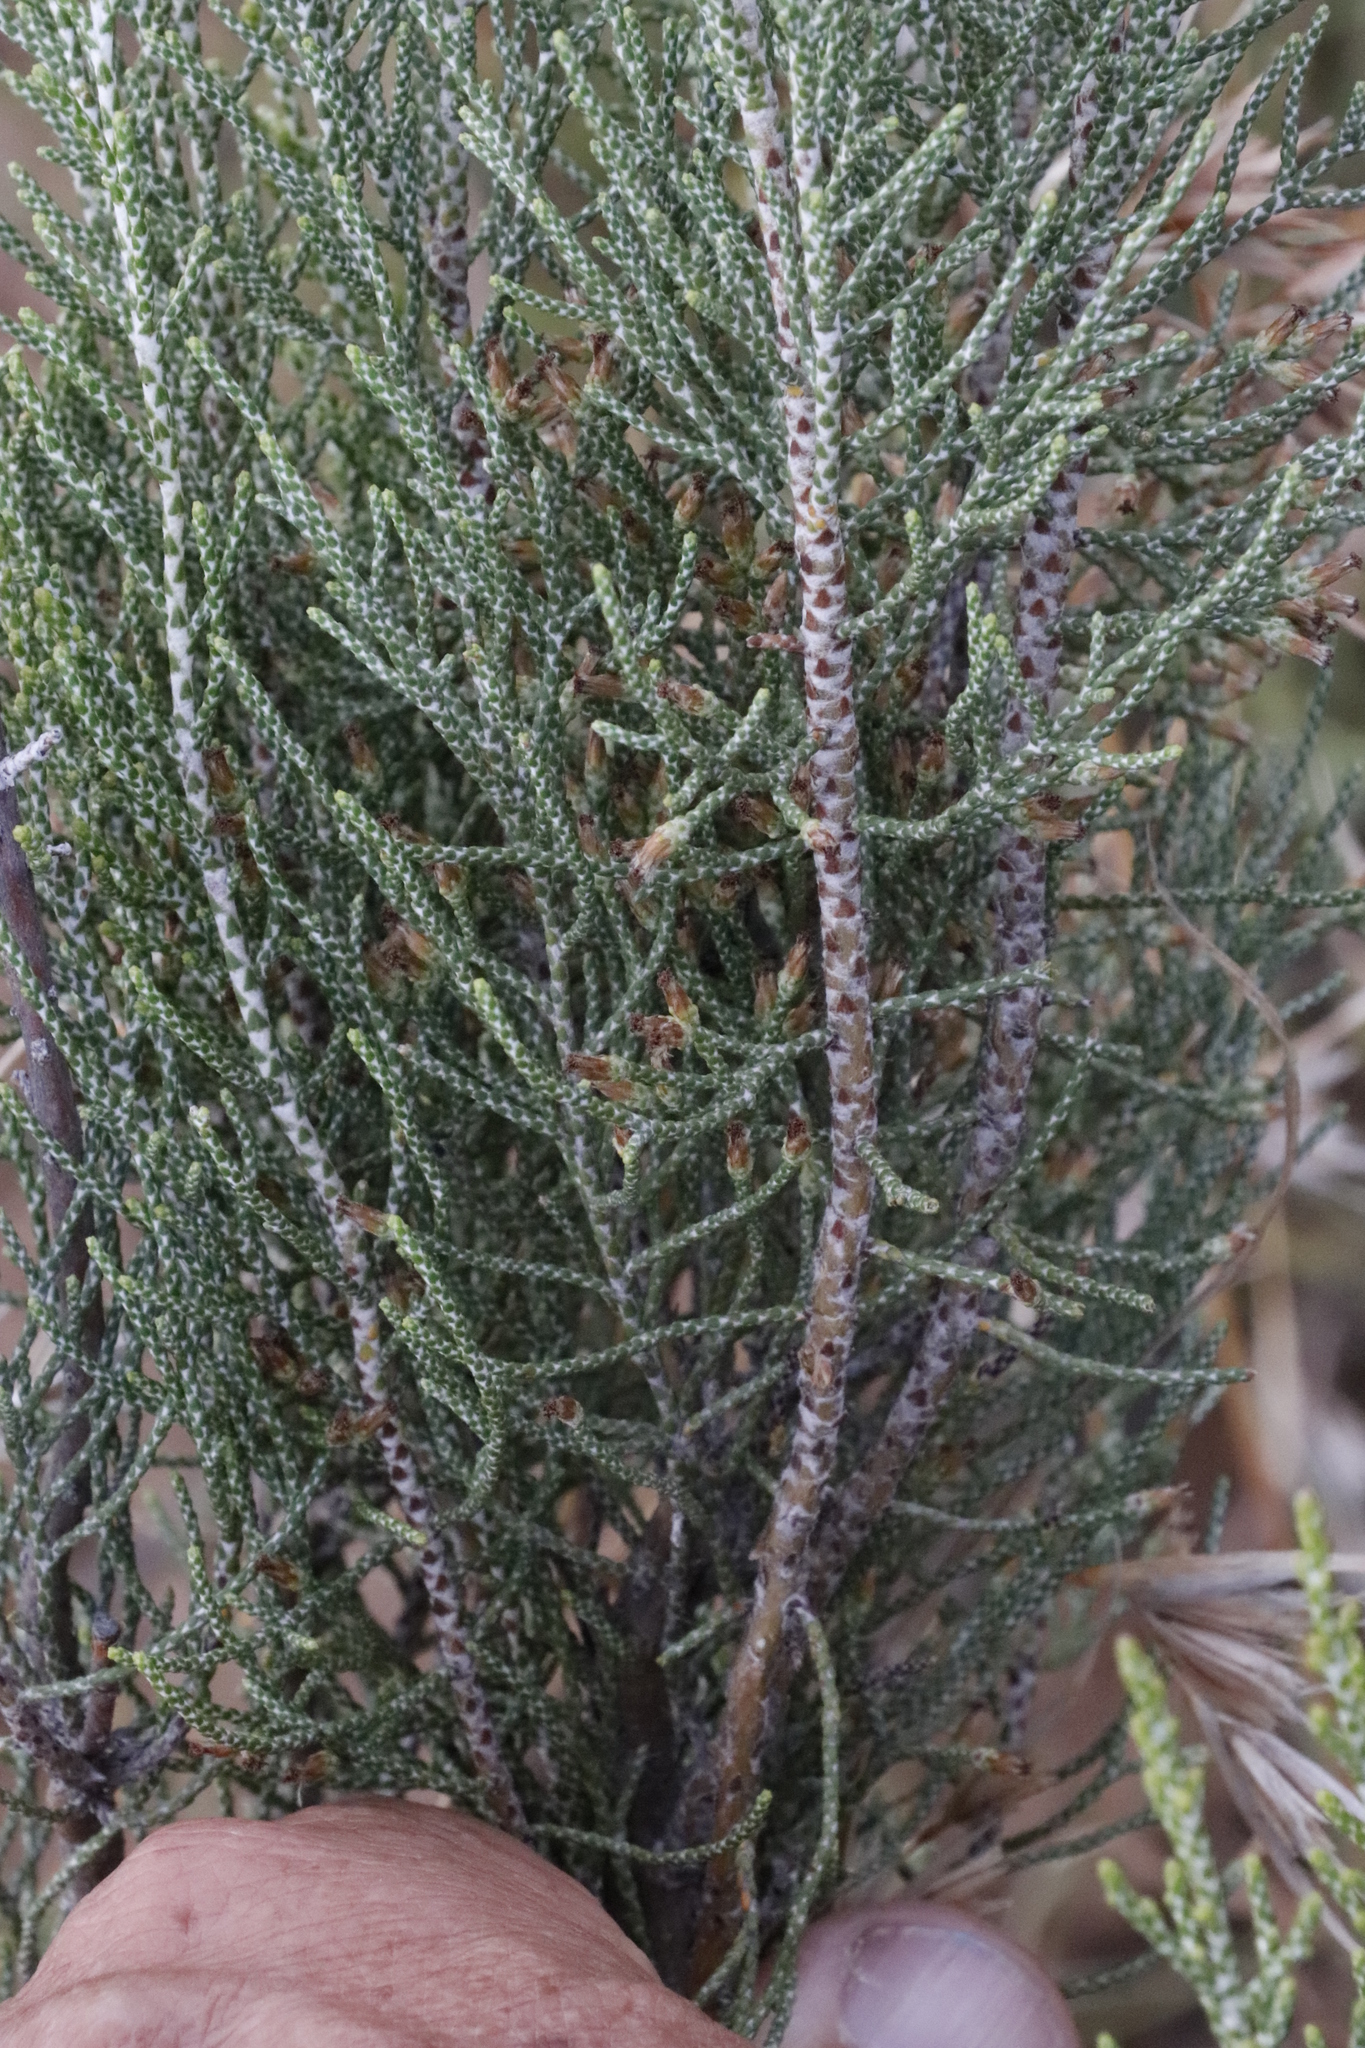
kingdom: Plantae
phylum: Tracheophyta
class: Magnoliopsida
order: Asterales
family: Asteraceae
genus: Dicerothamnus
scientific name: Dicerothamnus rhinocerotis
